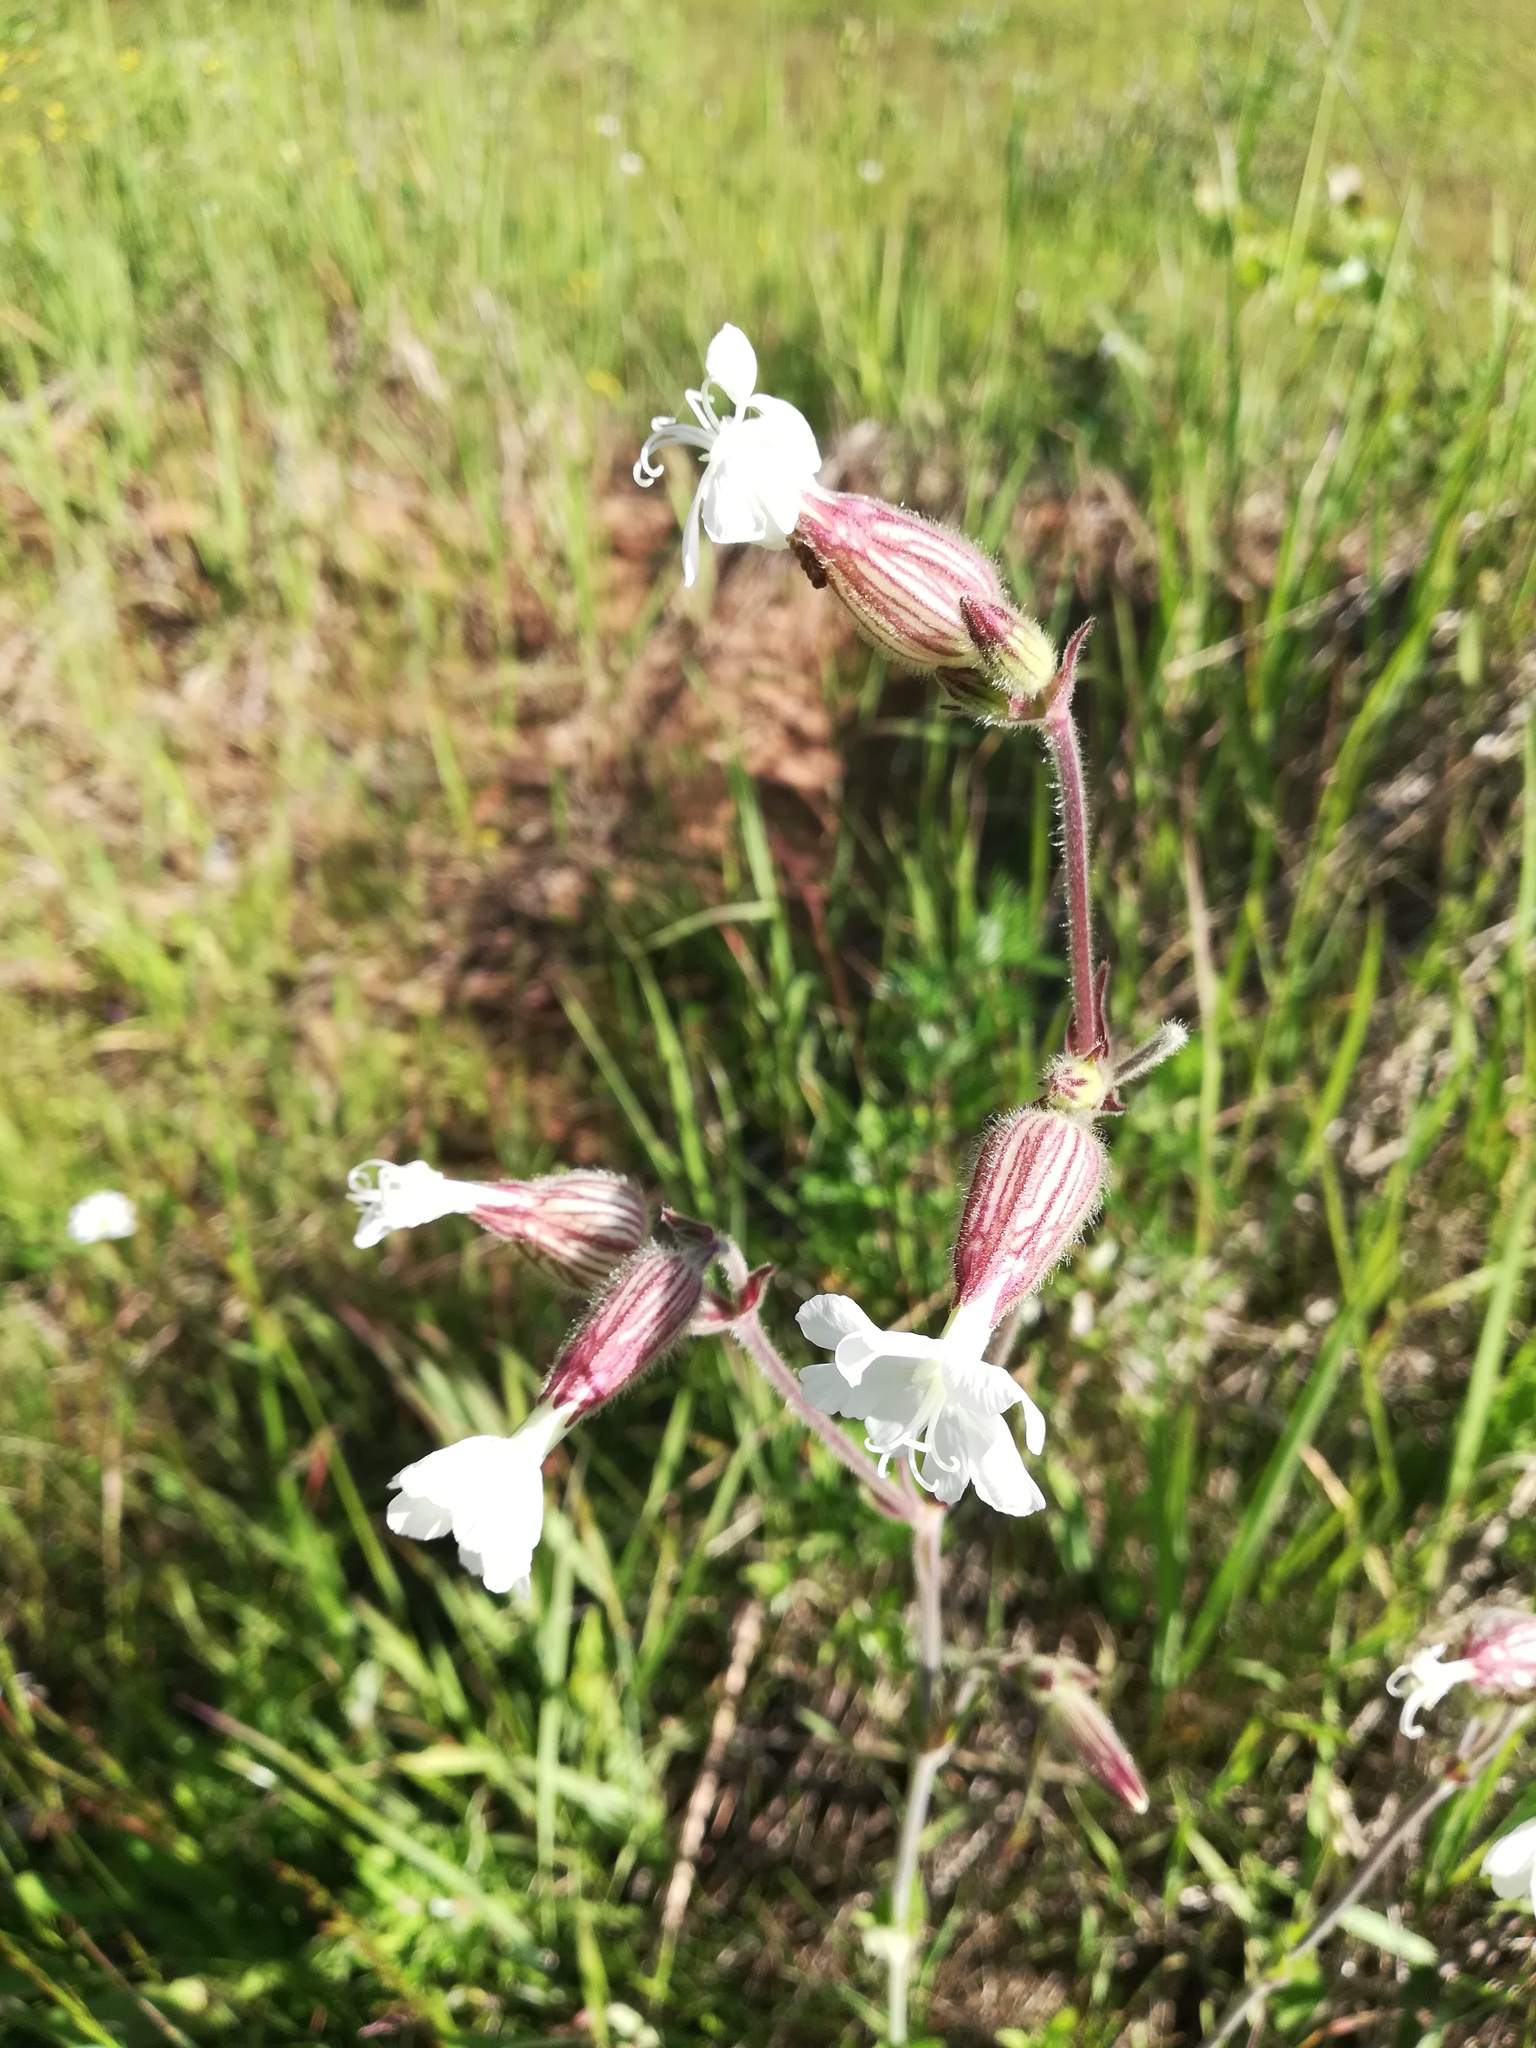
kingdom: Plantae
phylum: Tracheophyta
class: Magnoliopsida
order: Caryophyllales
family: Caryophyllaceae
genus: Silene
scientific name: Silene latifolia
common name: White campion
